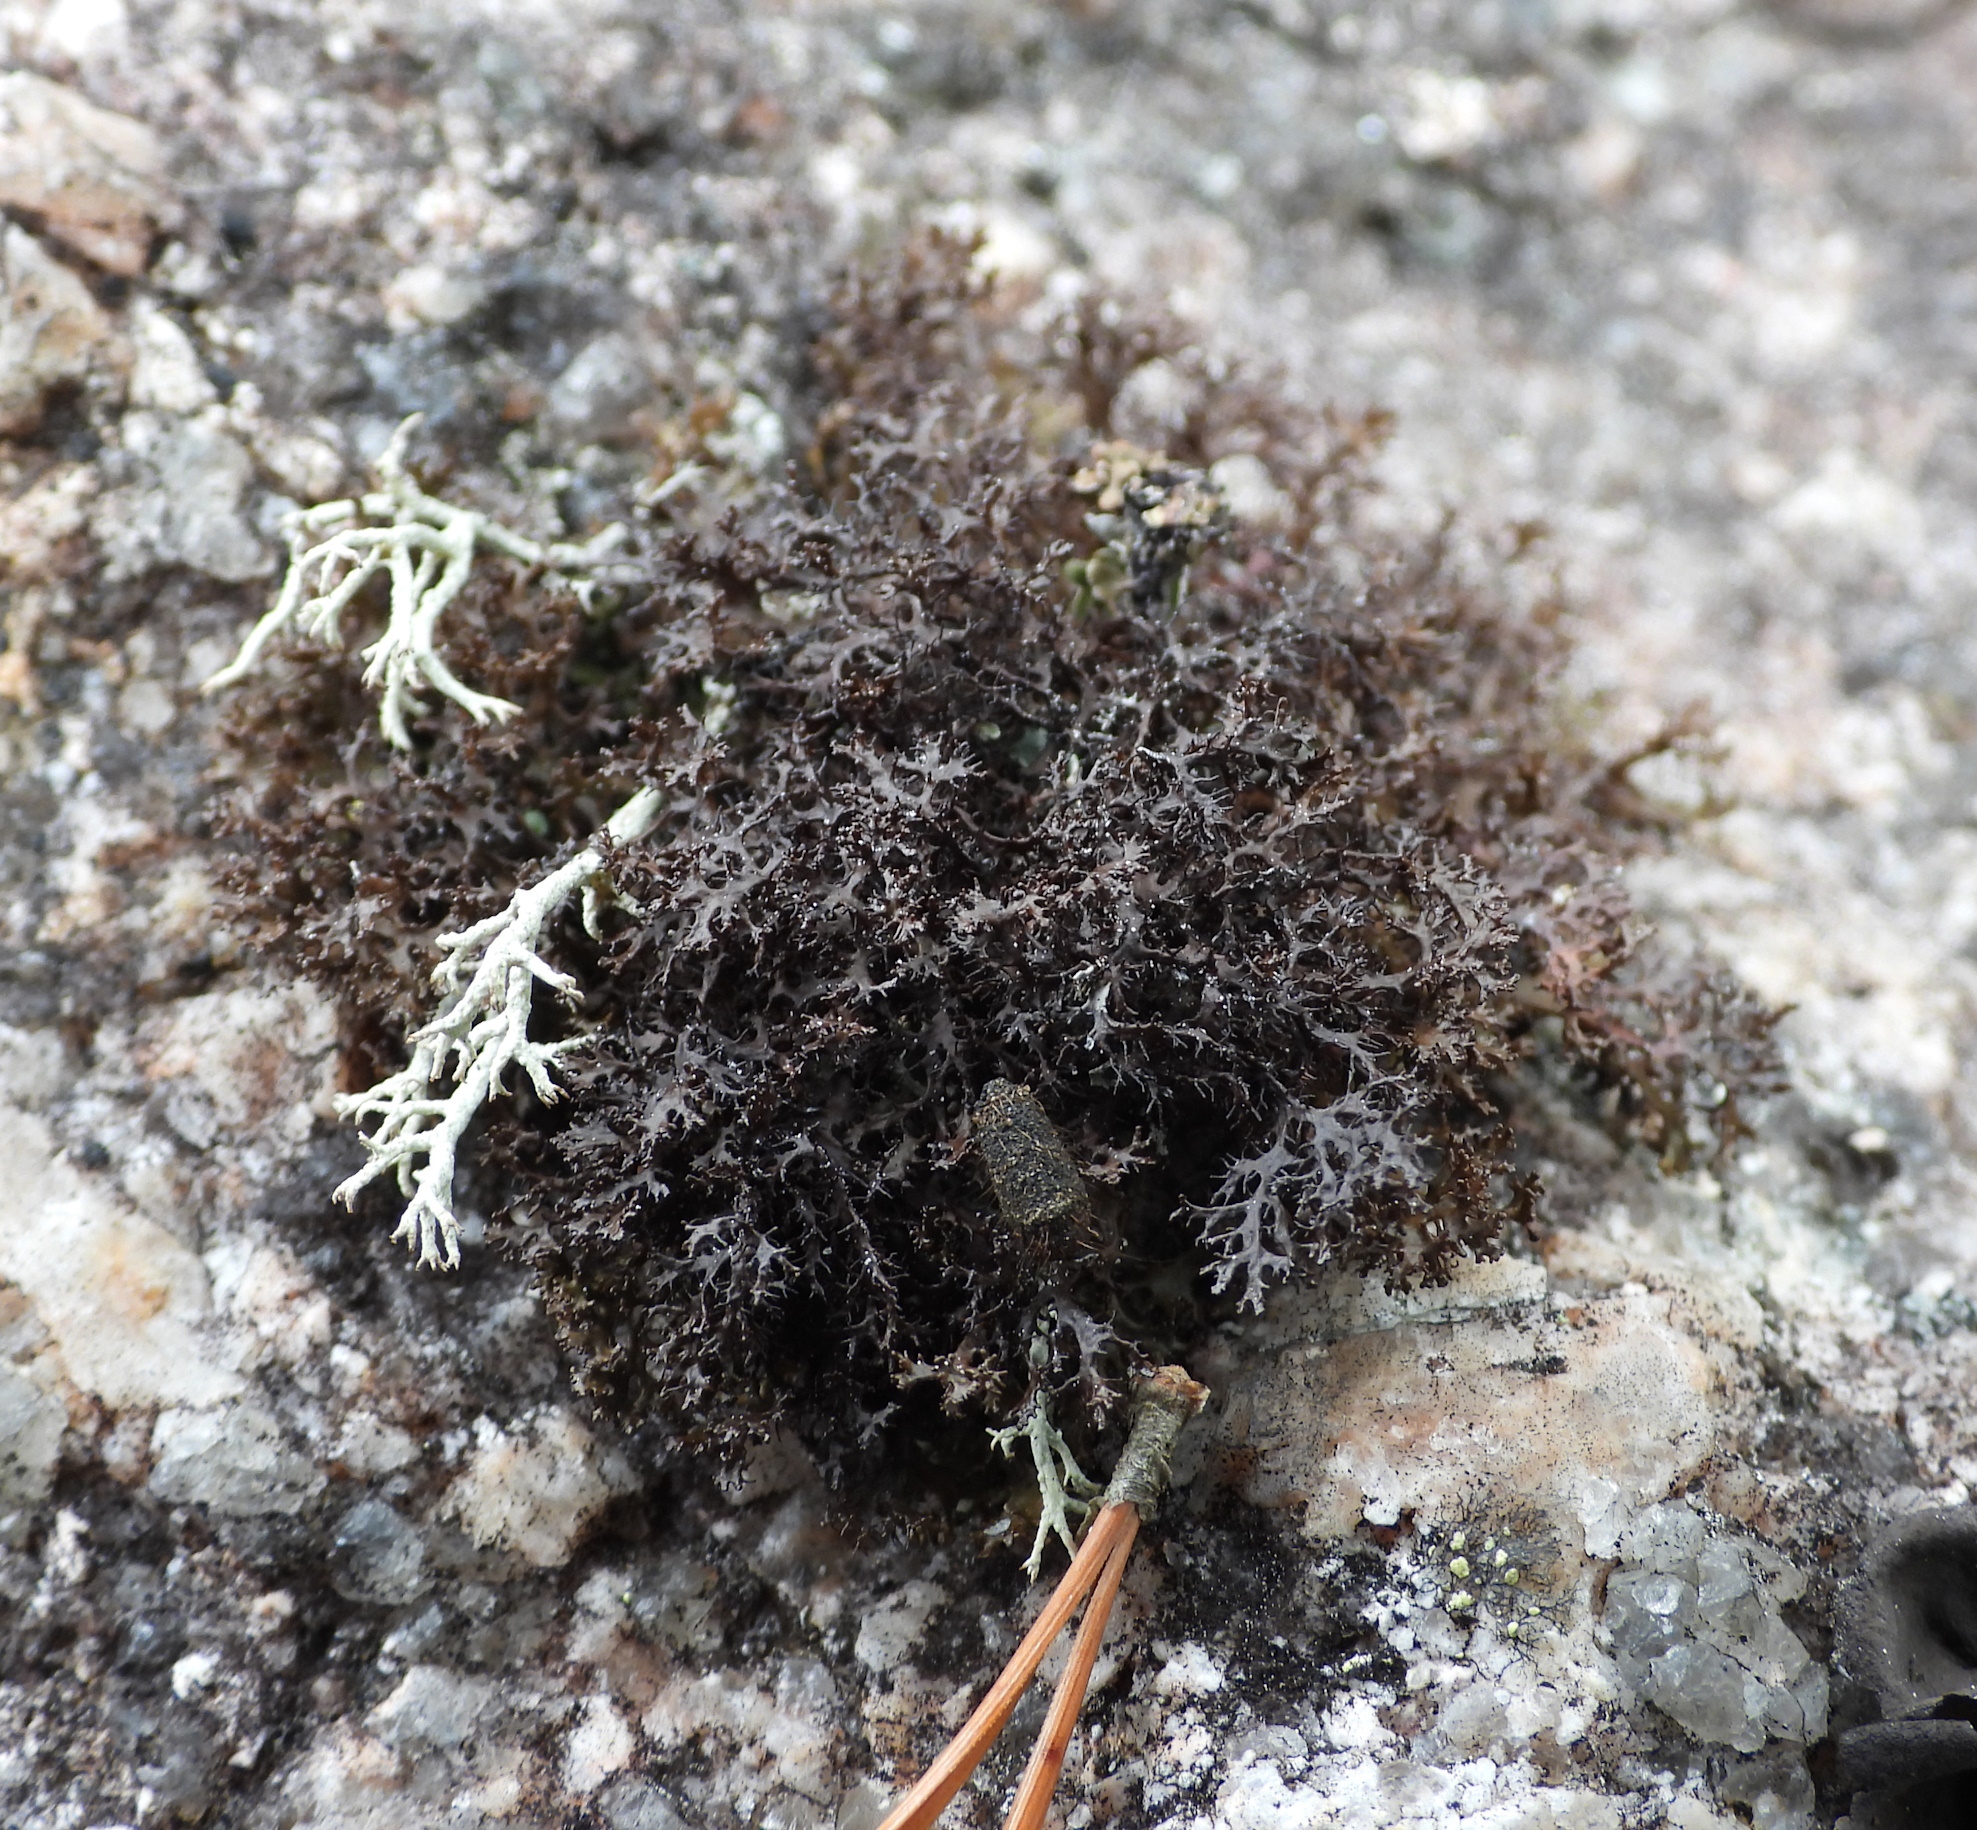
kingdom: Fungi
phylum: Ascomycota
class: Lecanoromycetes
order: Lecanorales
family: Parmeliaceae
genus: Cetraria
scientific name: Cetraria odontella
